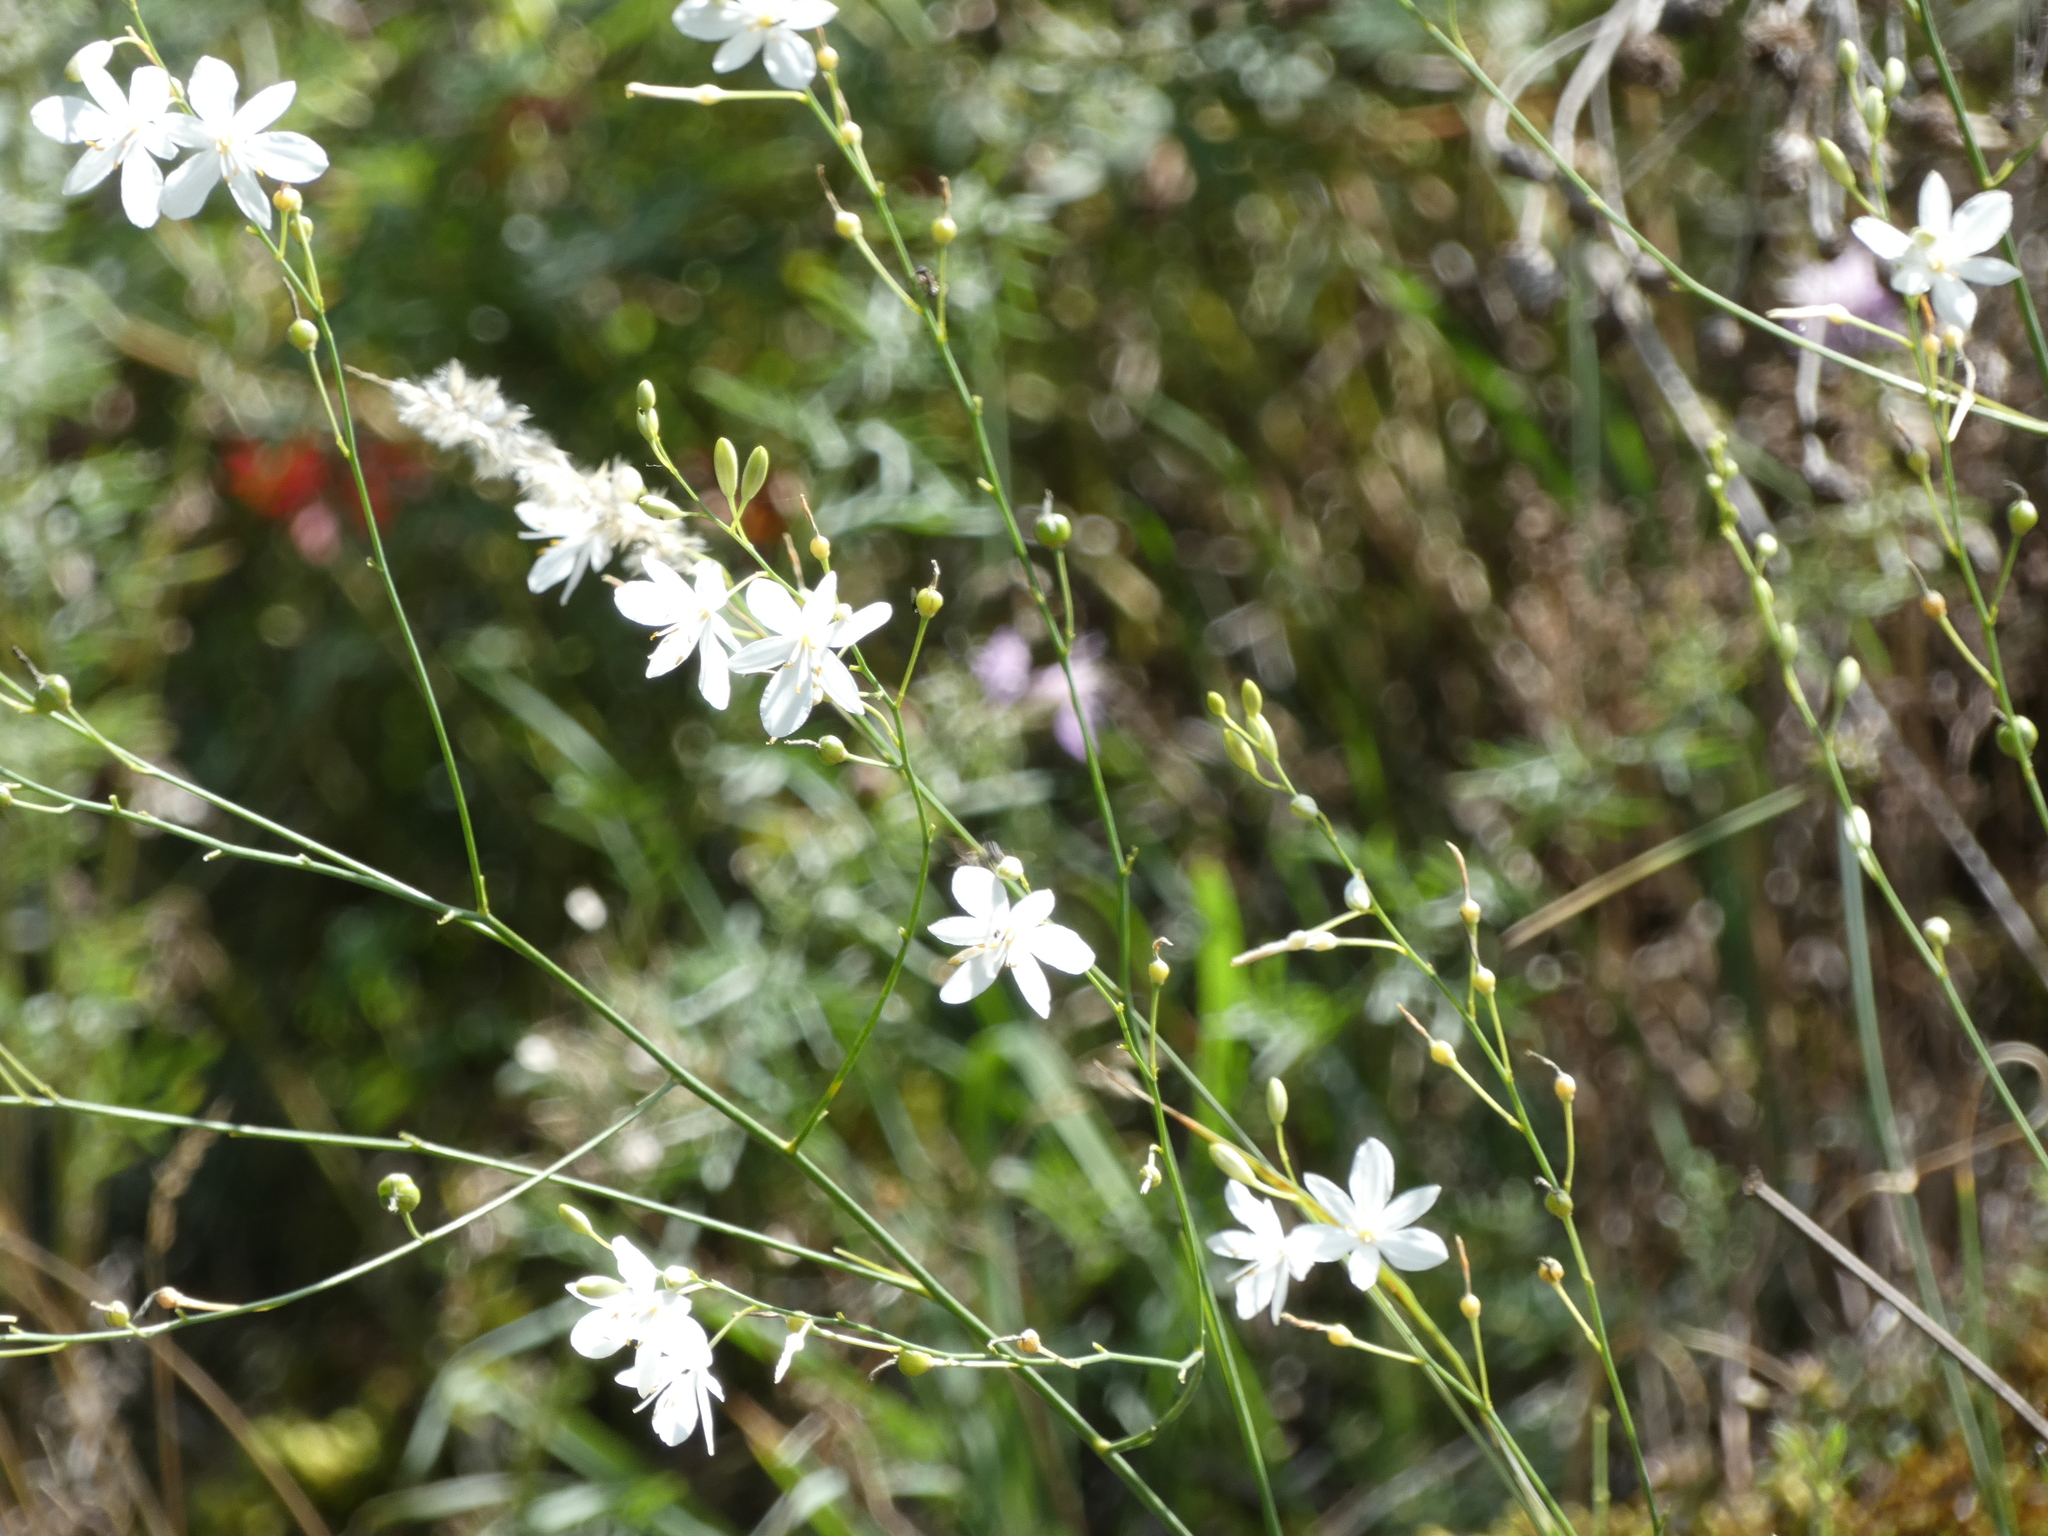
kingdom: Plantae
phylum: Tracheophyta
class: Liliopsida
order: Asparagales
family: Asparagaceae
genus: Anthericum
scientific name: Anthericum ramosum
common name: Branched st. bernard's-lily
